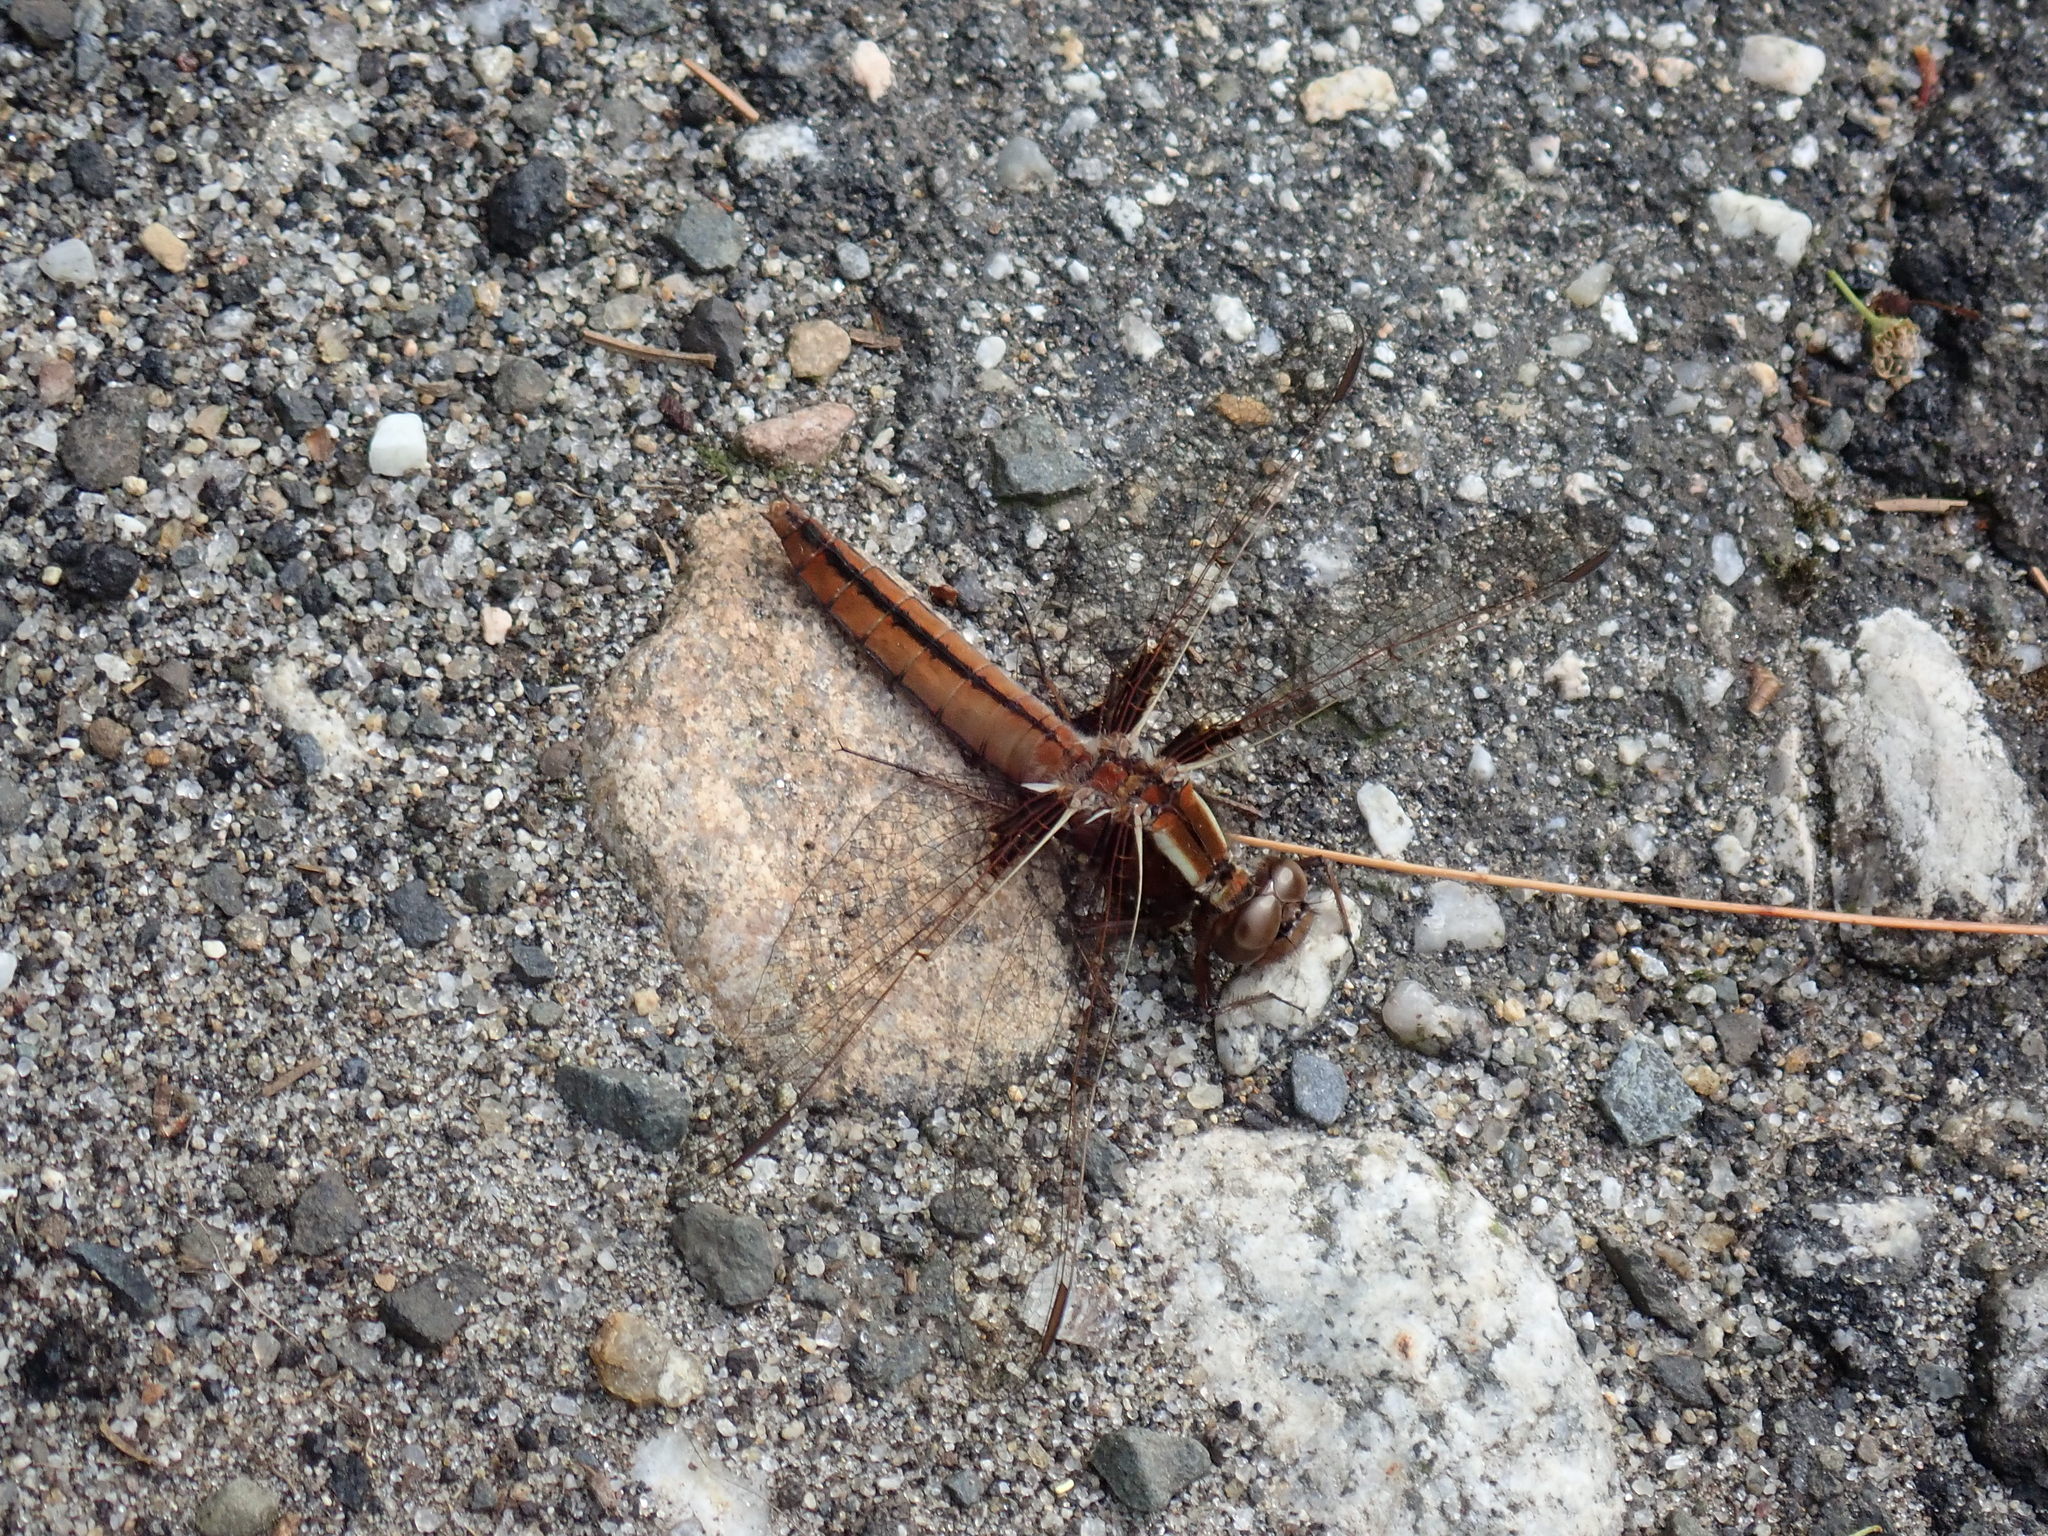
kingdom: Animalia
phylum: Arthropoda
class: Insecta
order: Odonata
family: Libellulidae
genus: Ladona
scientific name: Ladona exusta
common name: Libellule embrasée
